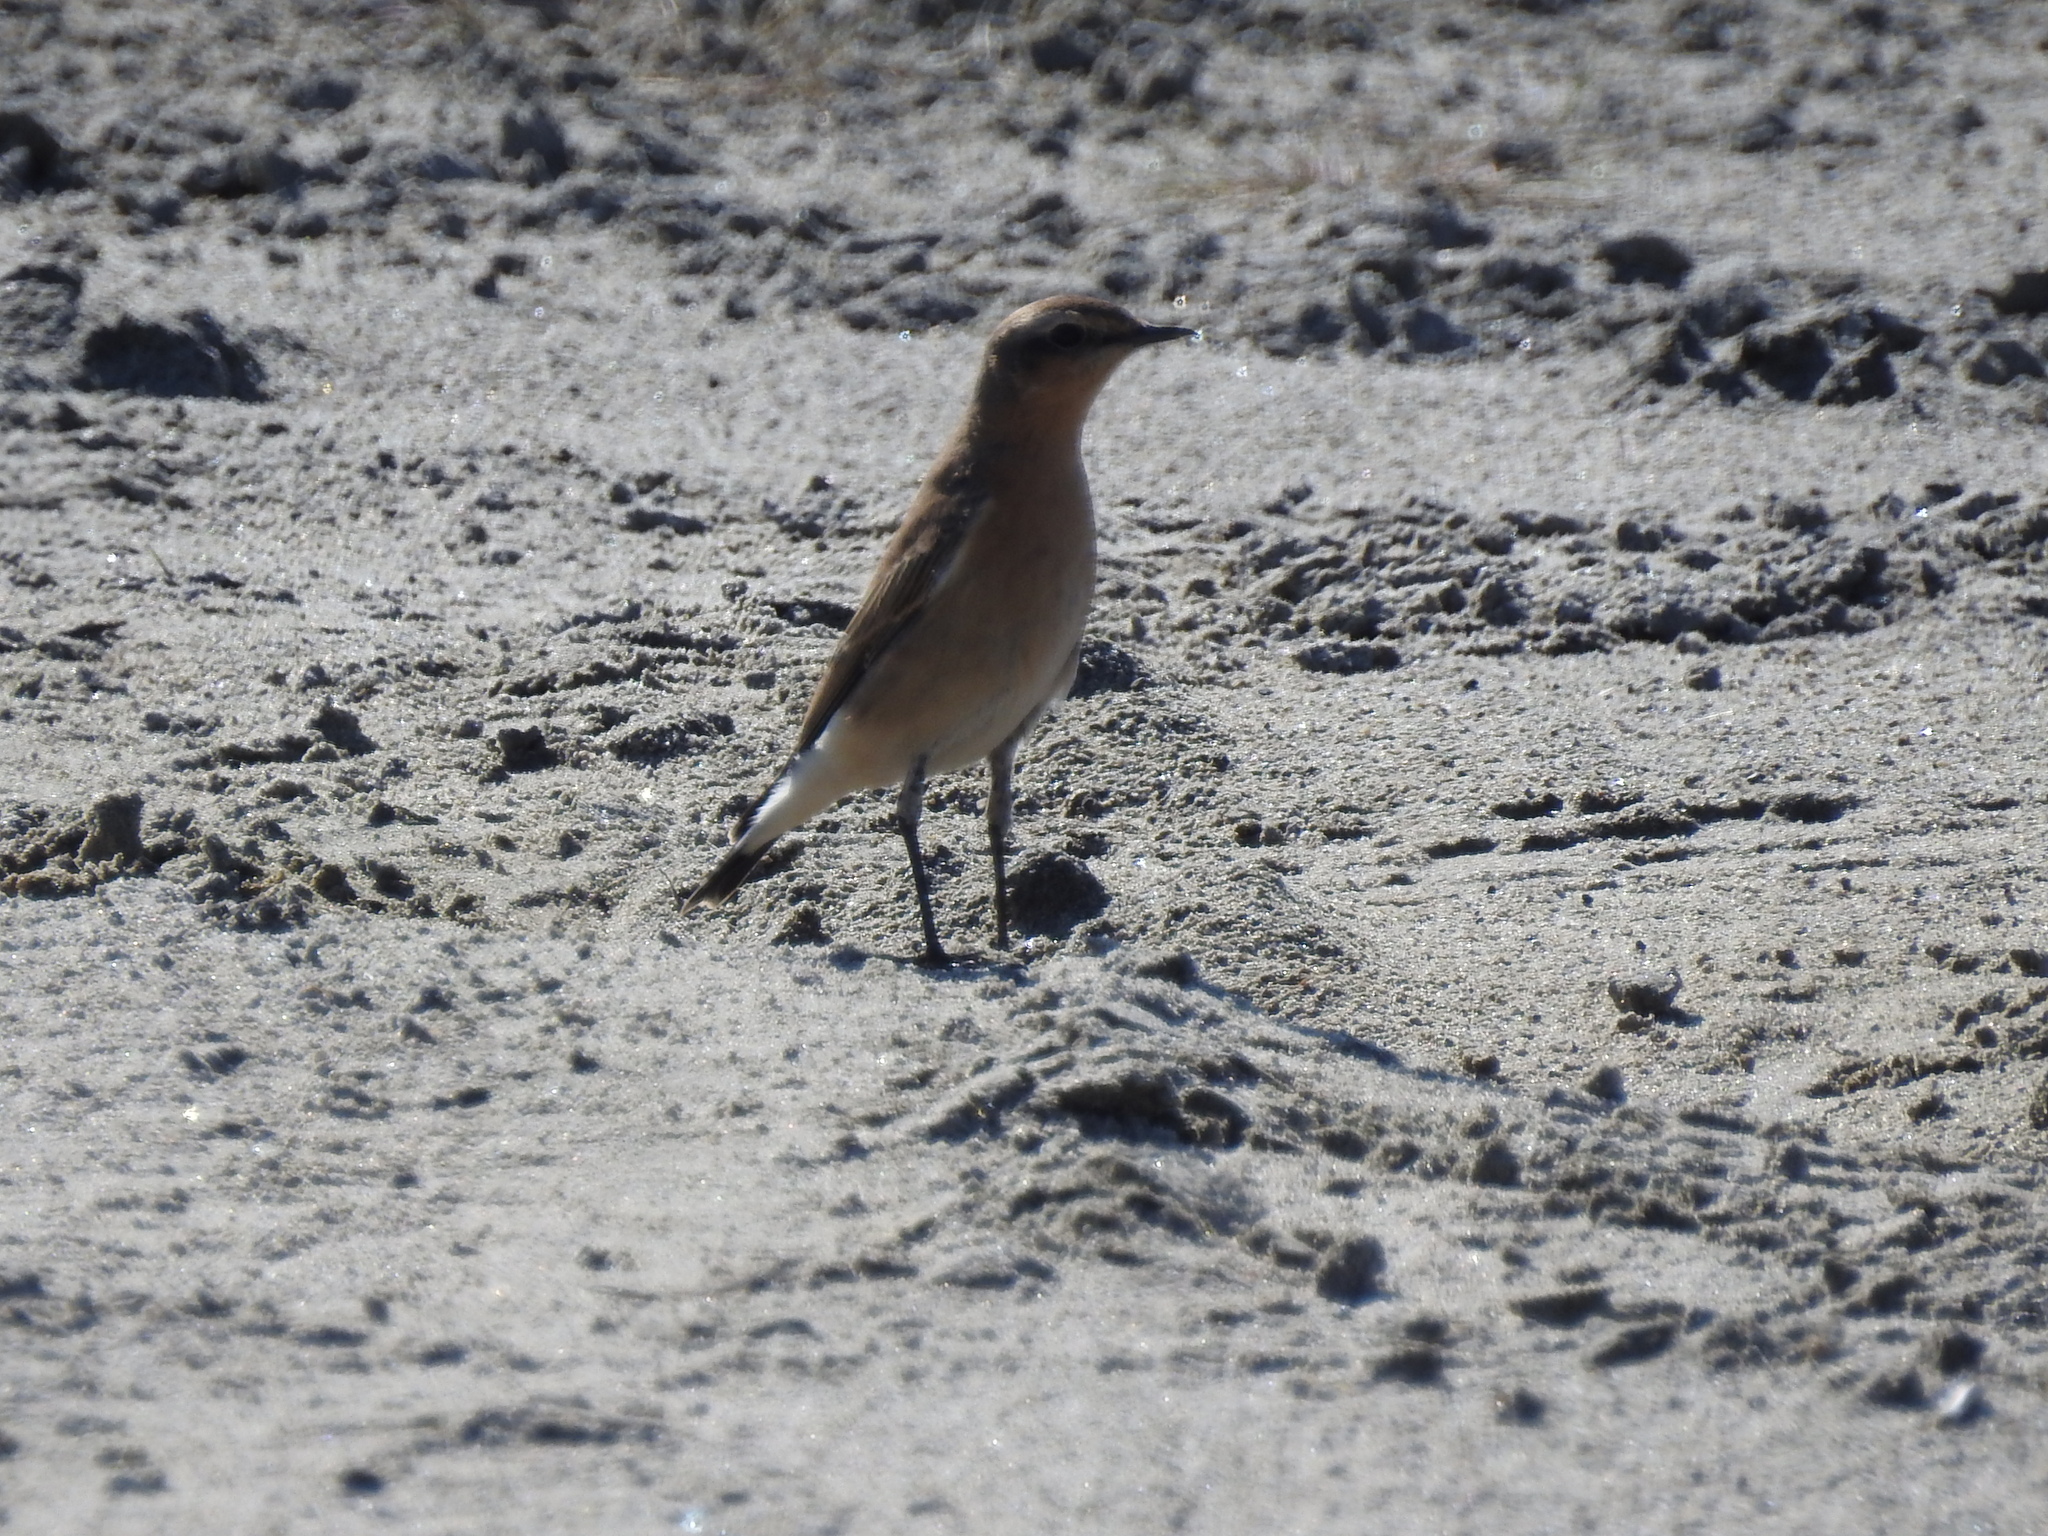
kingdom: Animalia
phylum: Chordata
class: Aves
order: Passeriformes
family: Muscicapidae
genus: Oenanthe
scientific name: Oenanthe oenanthe
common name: Northern wheatear
